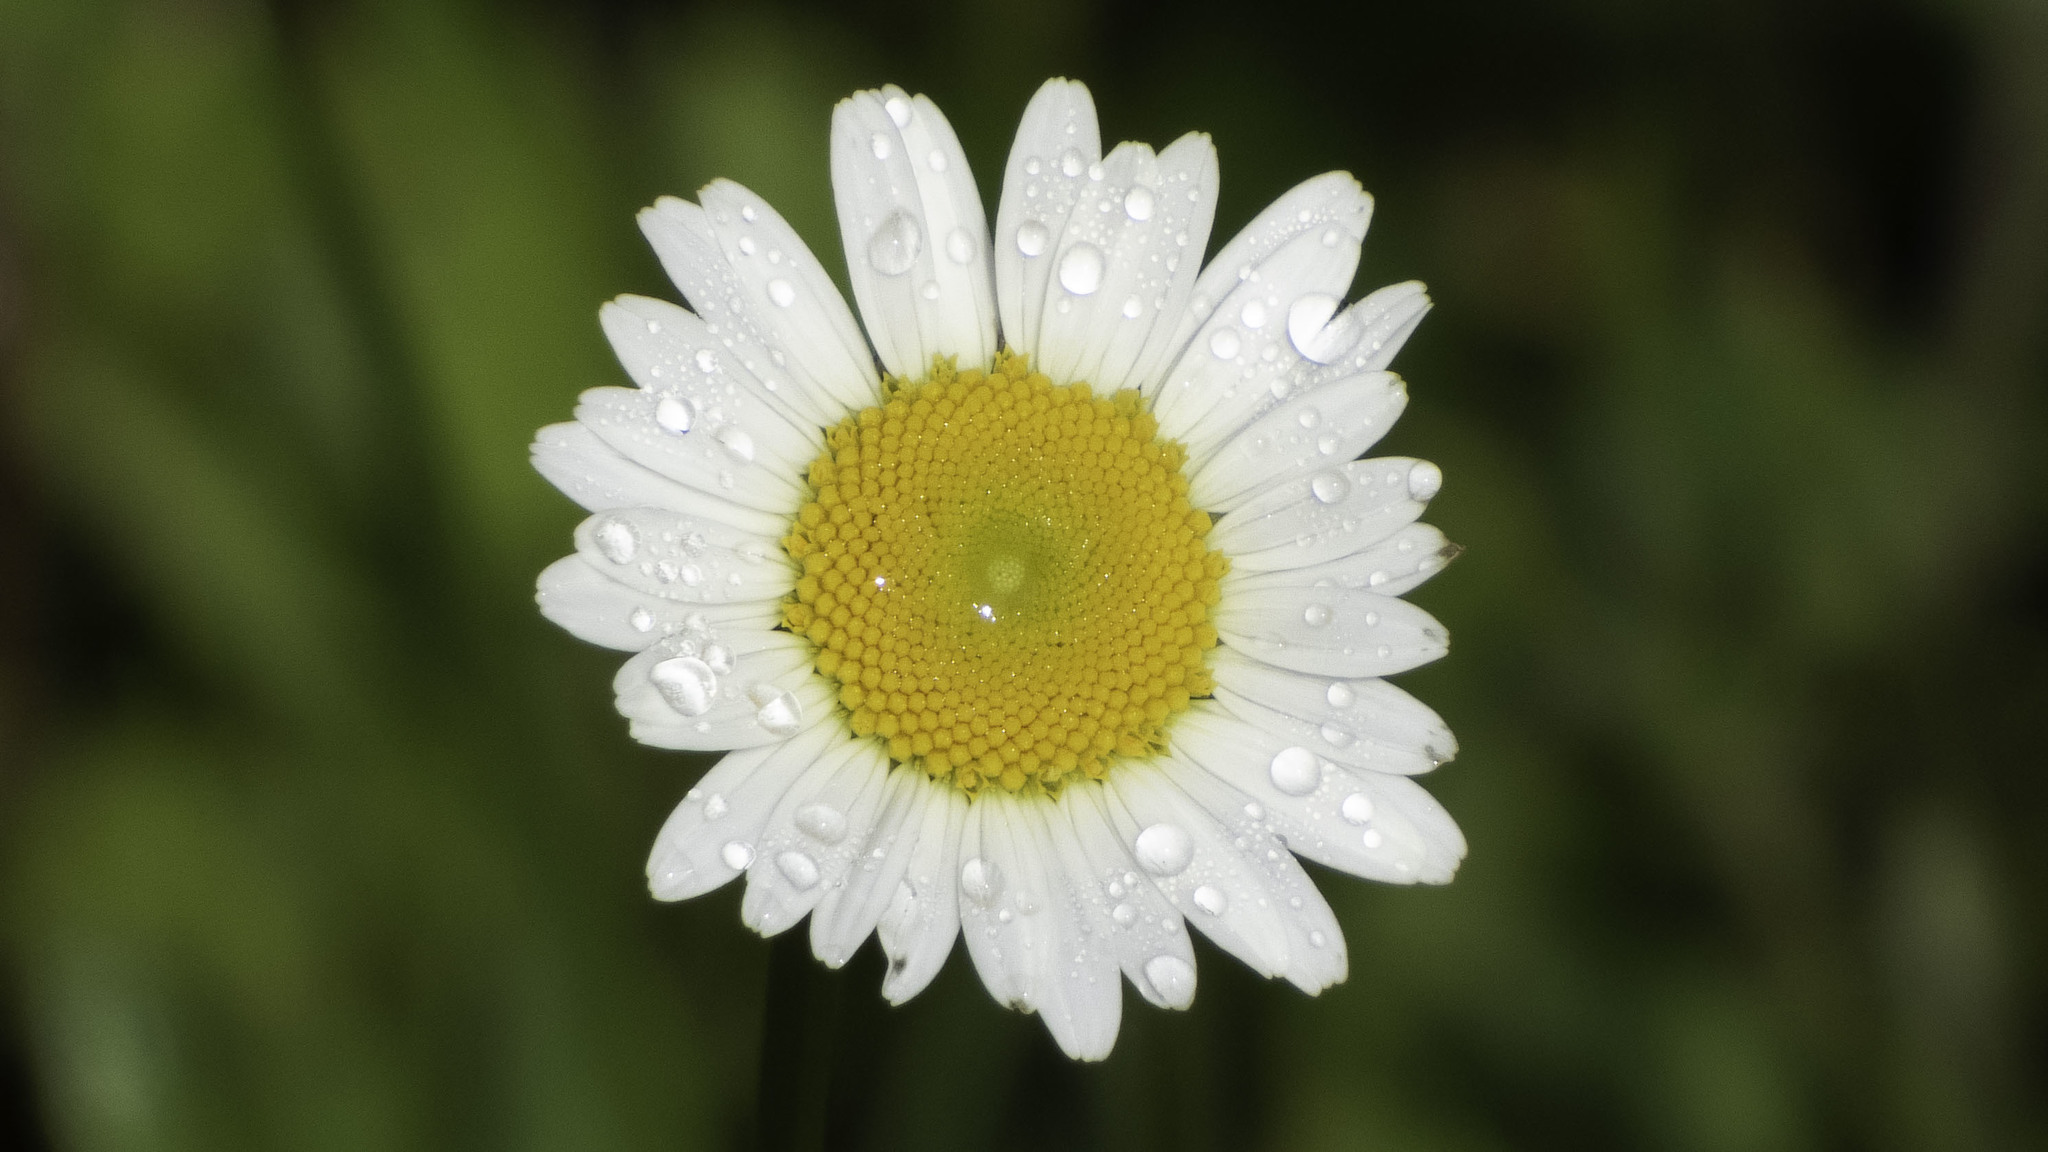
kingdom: Plantae
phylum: Tracheophyta
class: Magnoliopsida
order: Asterales
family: Asteraceae
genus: Leucanthemum
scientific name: Leucanthemum vulgare
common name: Oxeye daisy
